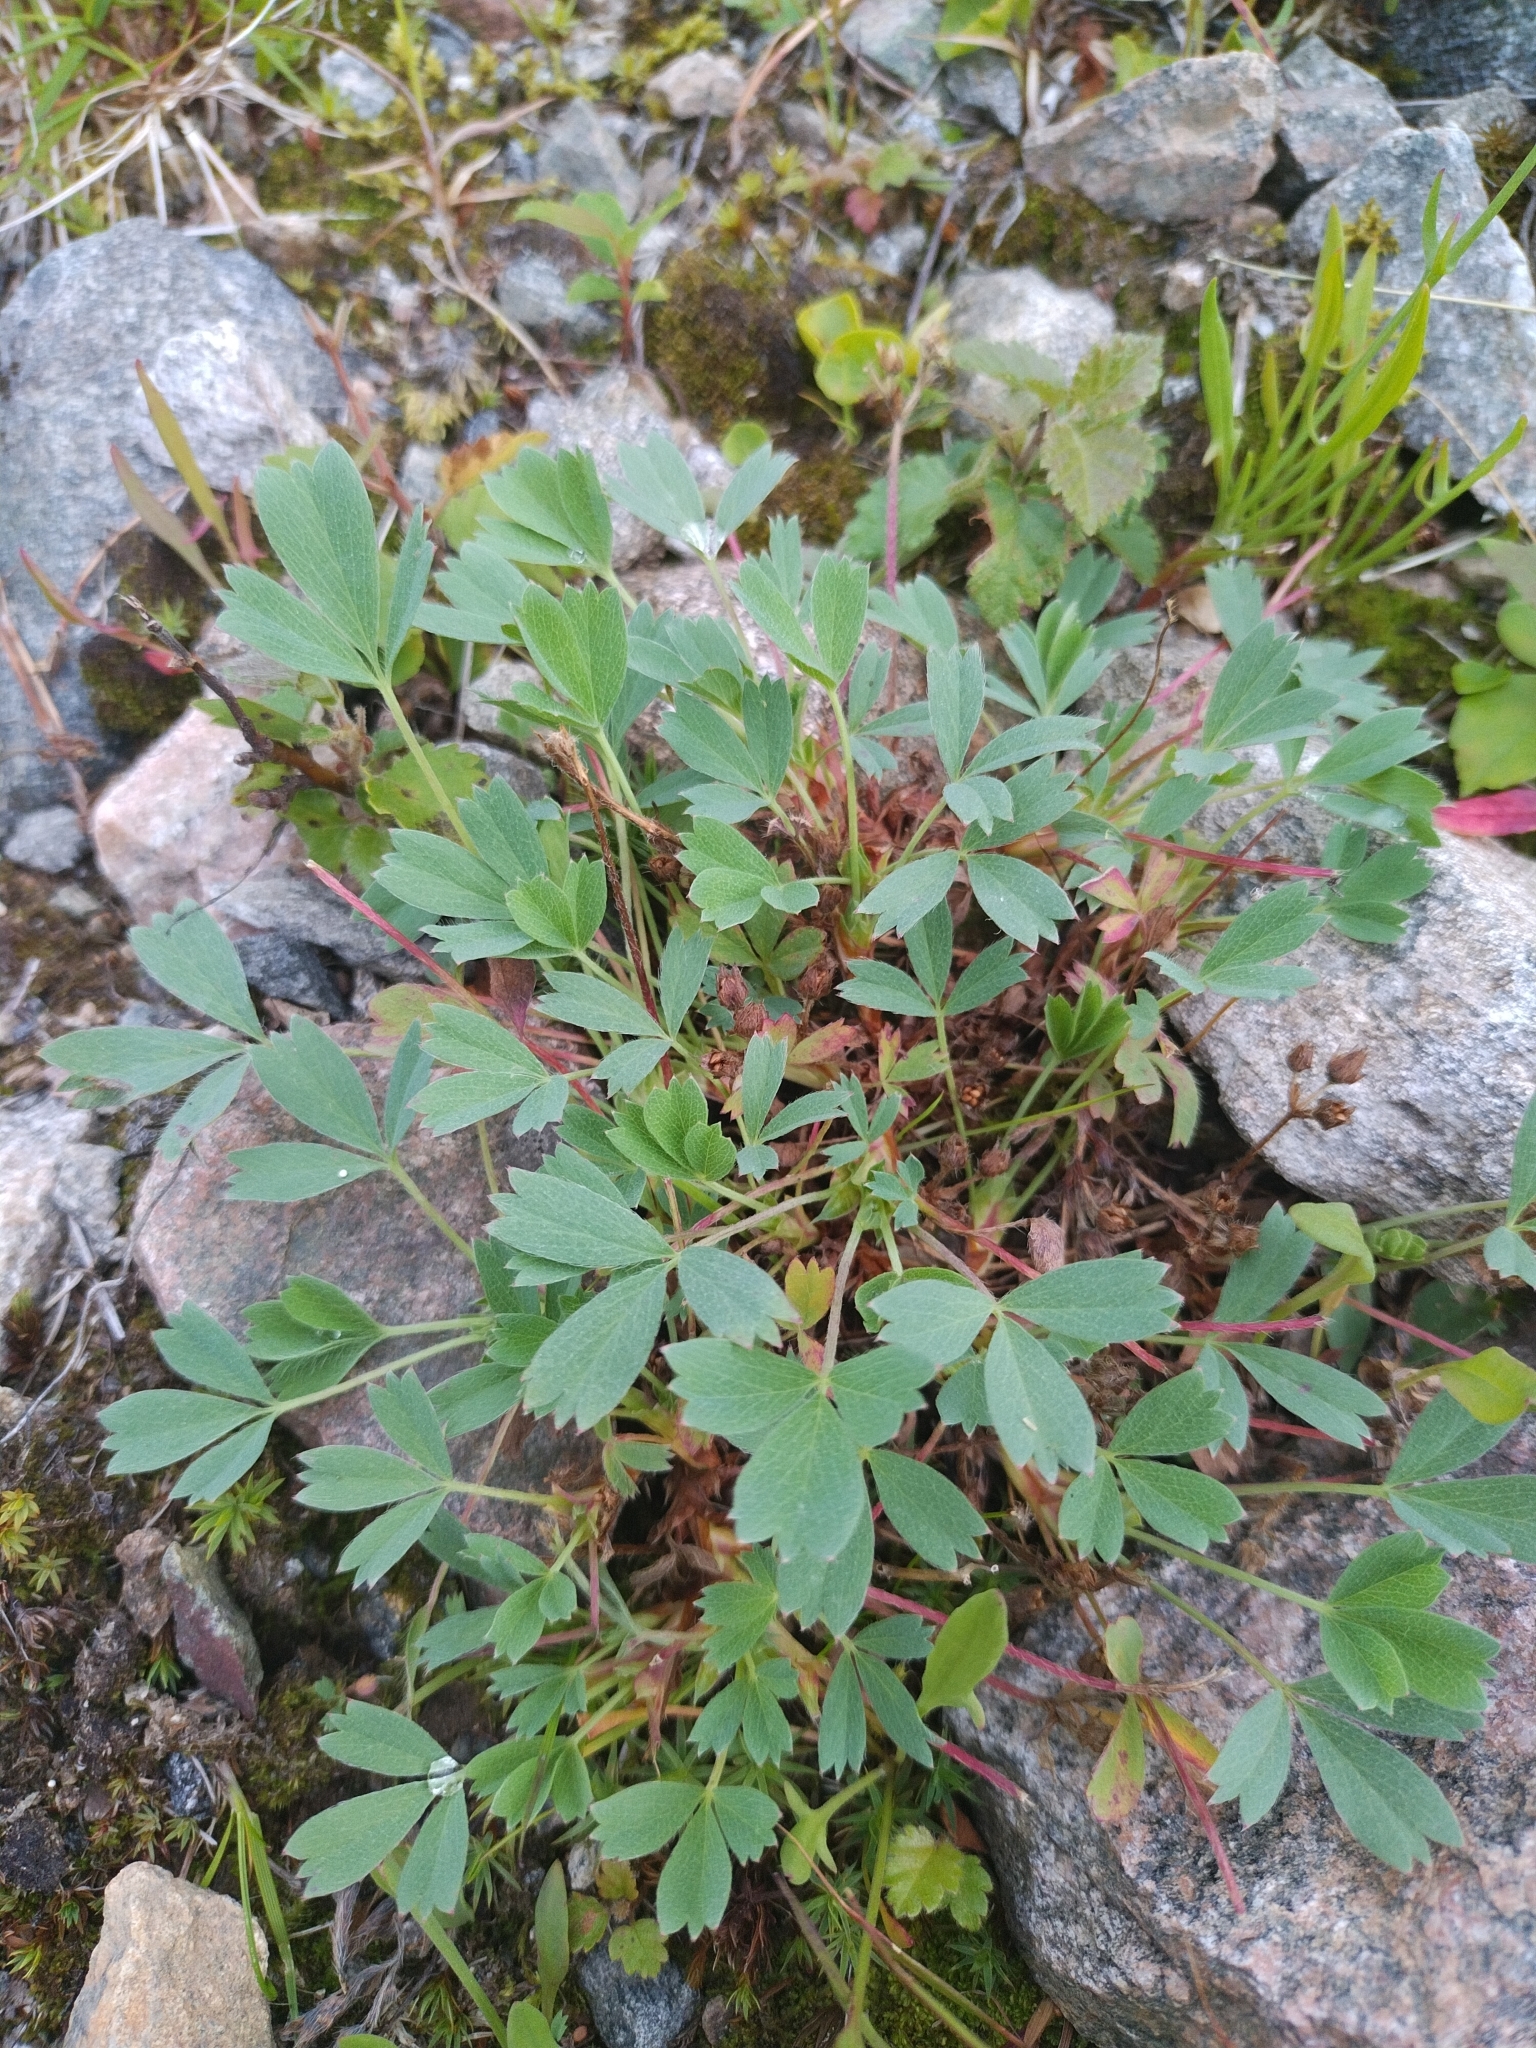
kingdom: Plantae
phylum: Tracheophyta
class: Magnoliopsida
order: Rosales
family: Rosaceae
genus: Sibbaldia
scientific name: Sibbaldia procumbens
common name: Creeping sibbaldia
